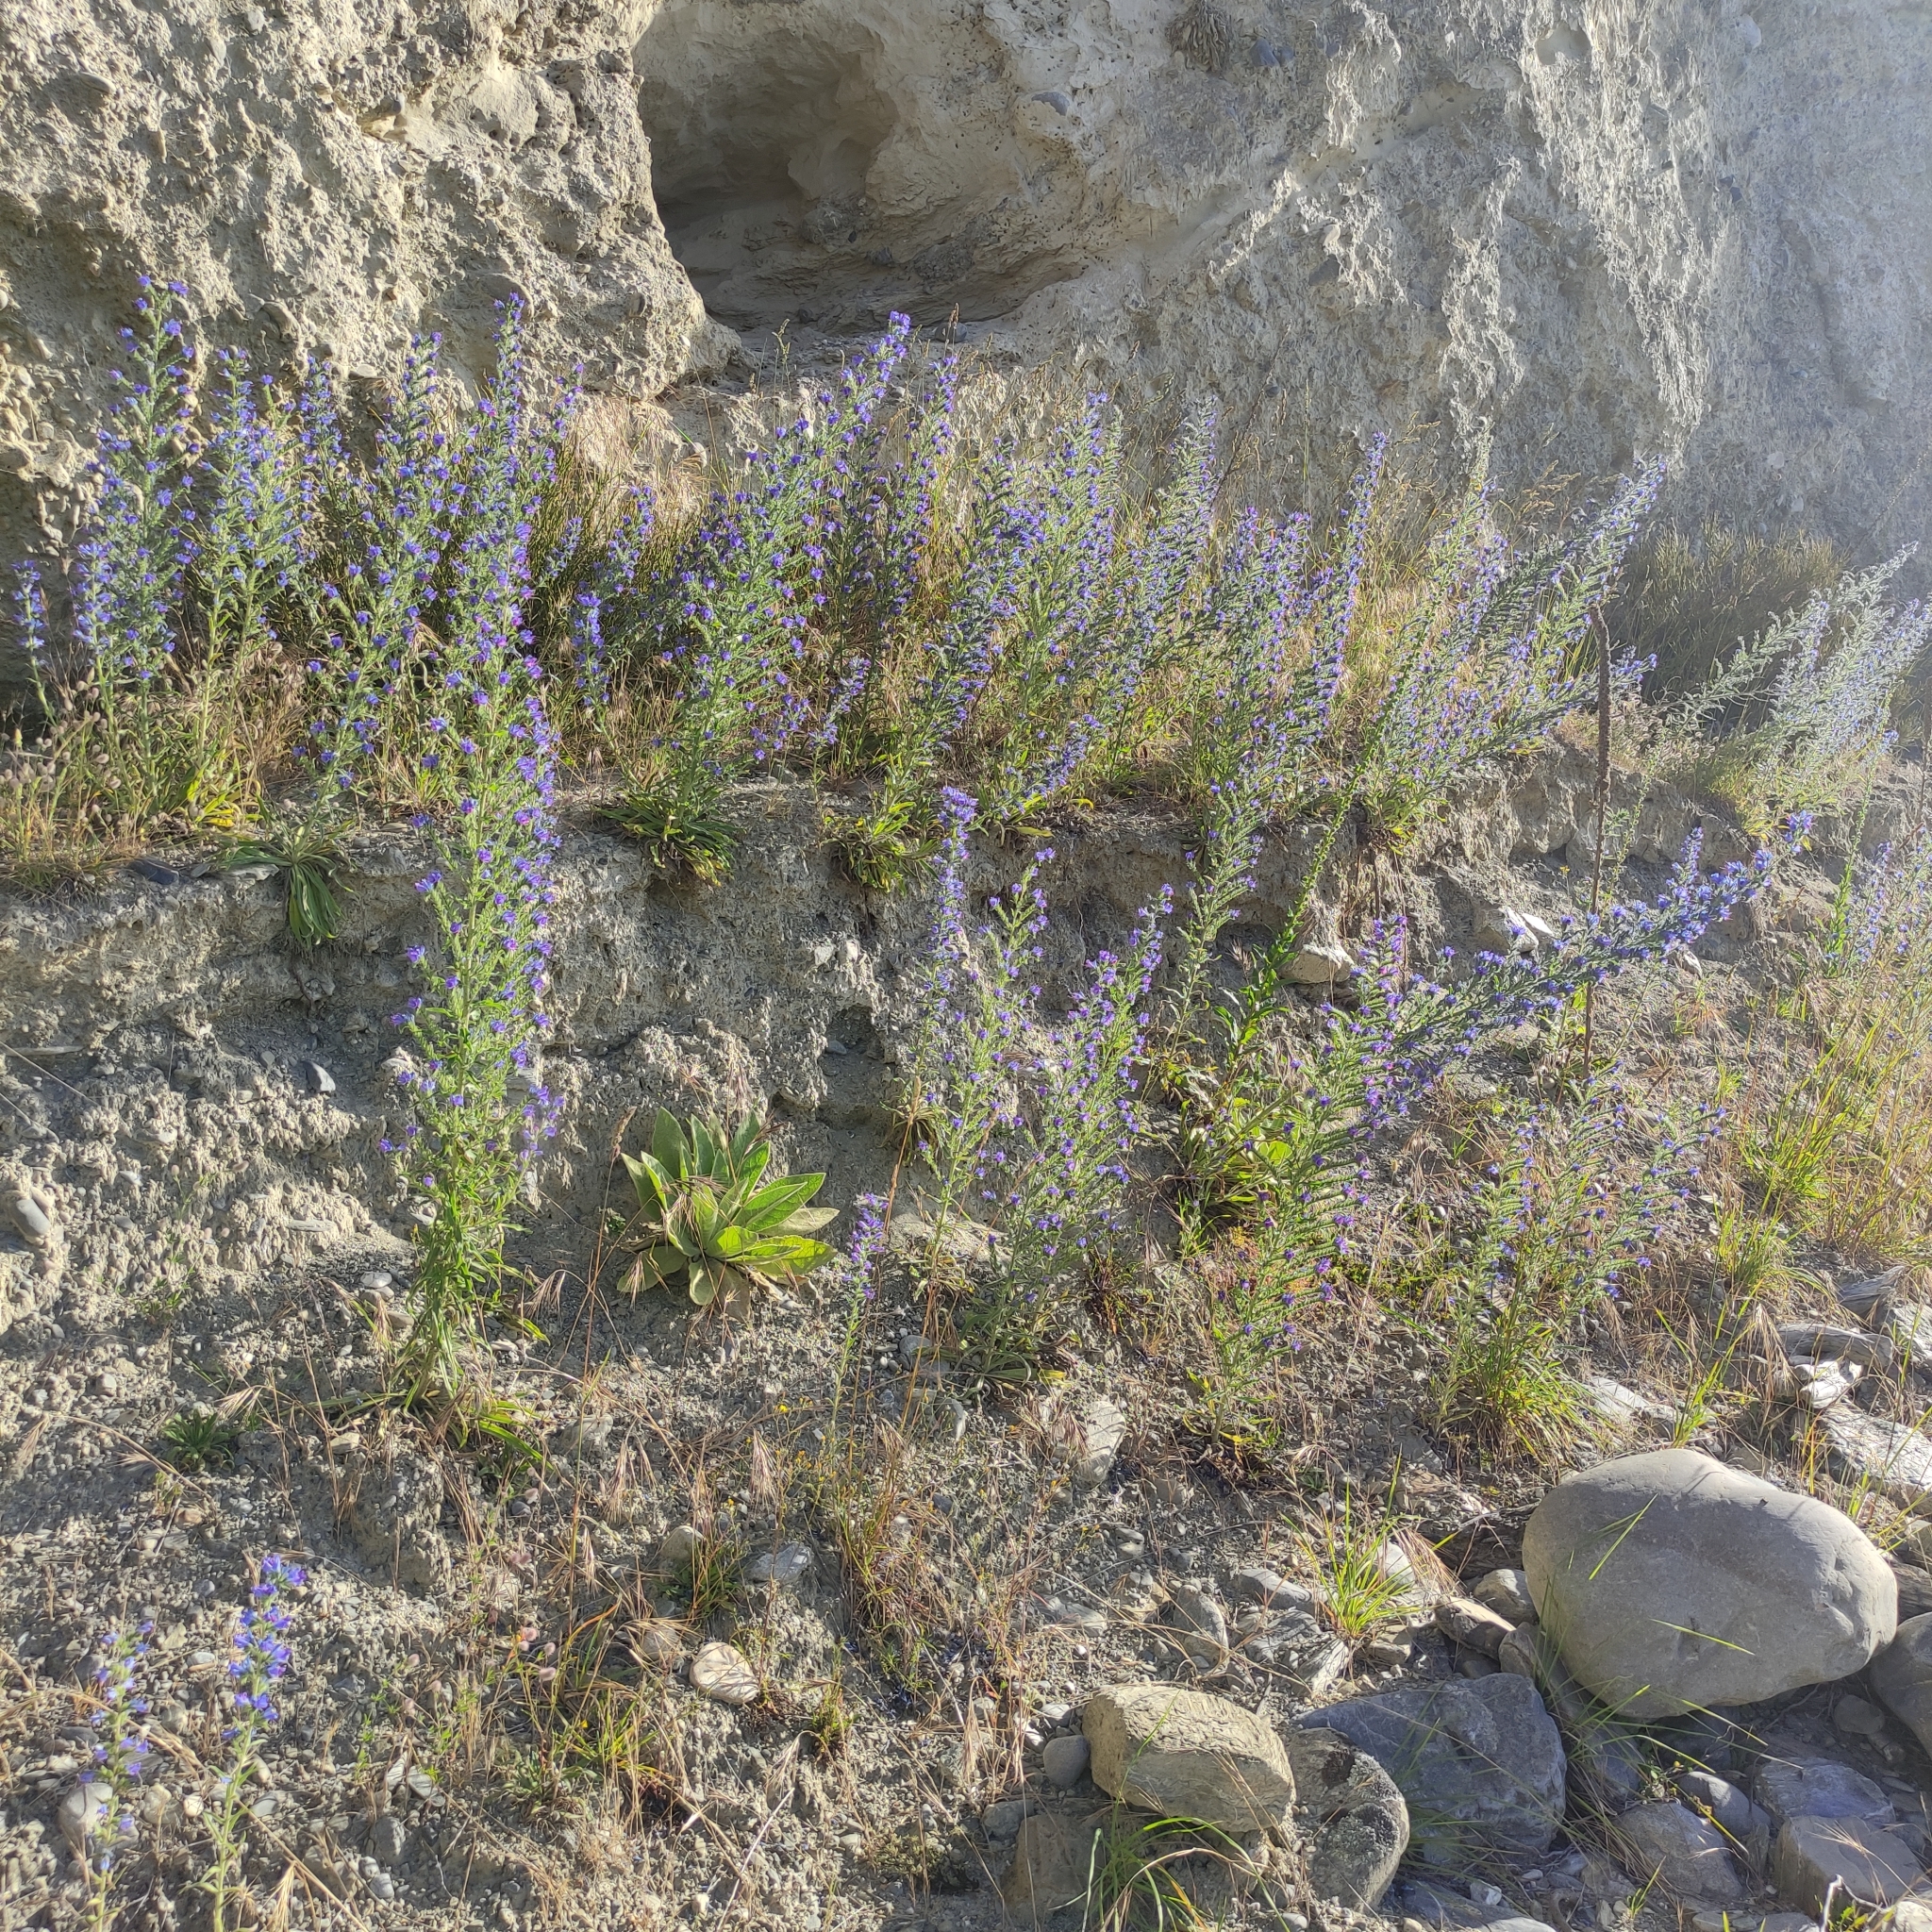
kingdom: Plantae
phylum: Tracheophyta
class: Magnoliopsida
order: Boraginales
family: Boraginaceae
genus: Echium
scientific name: Echium vulgare
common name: Common viper's bugloss
